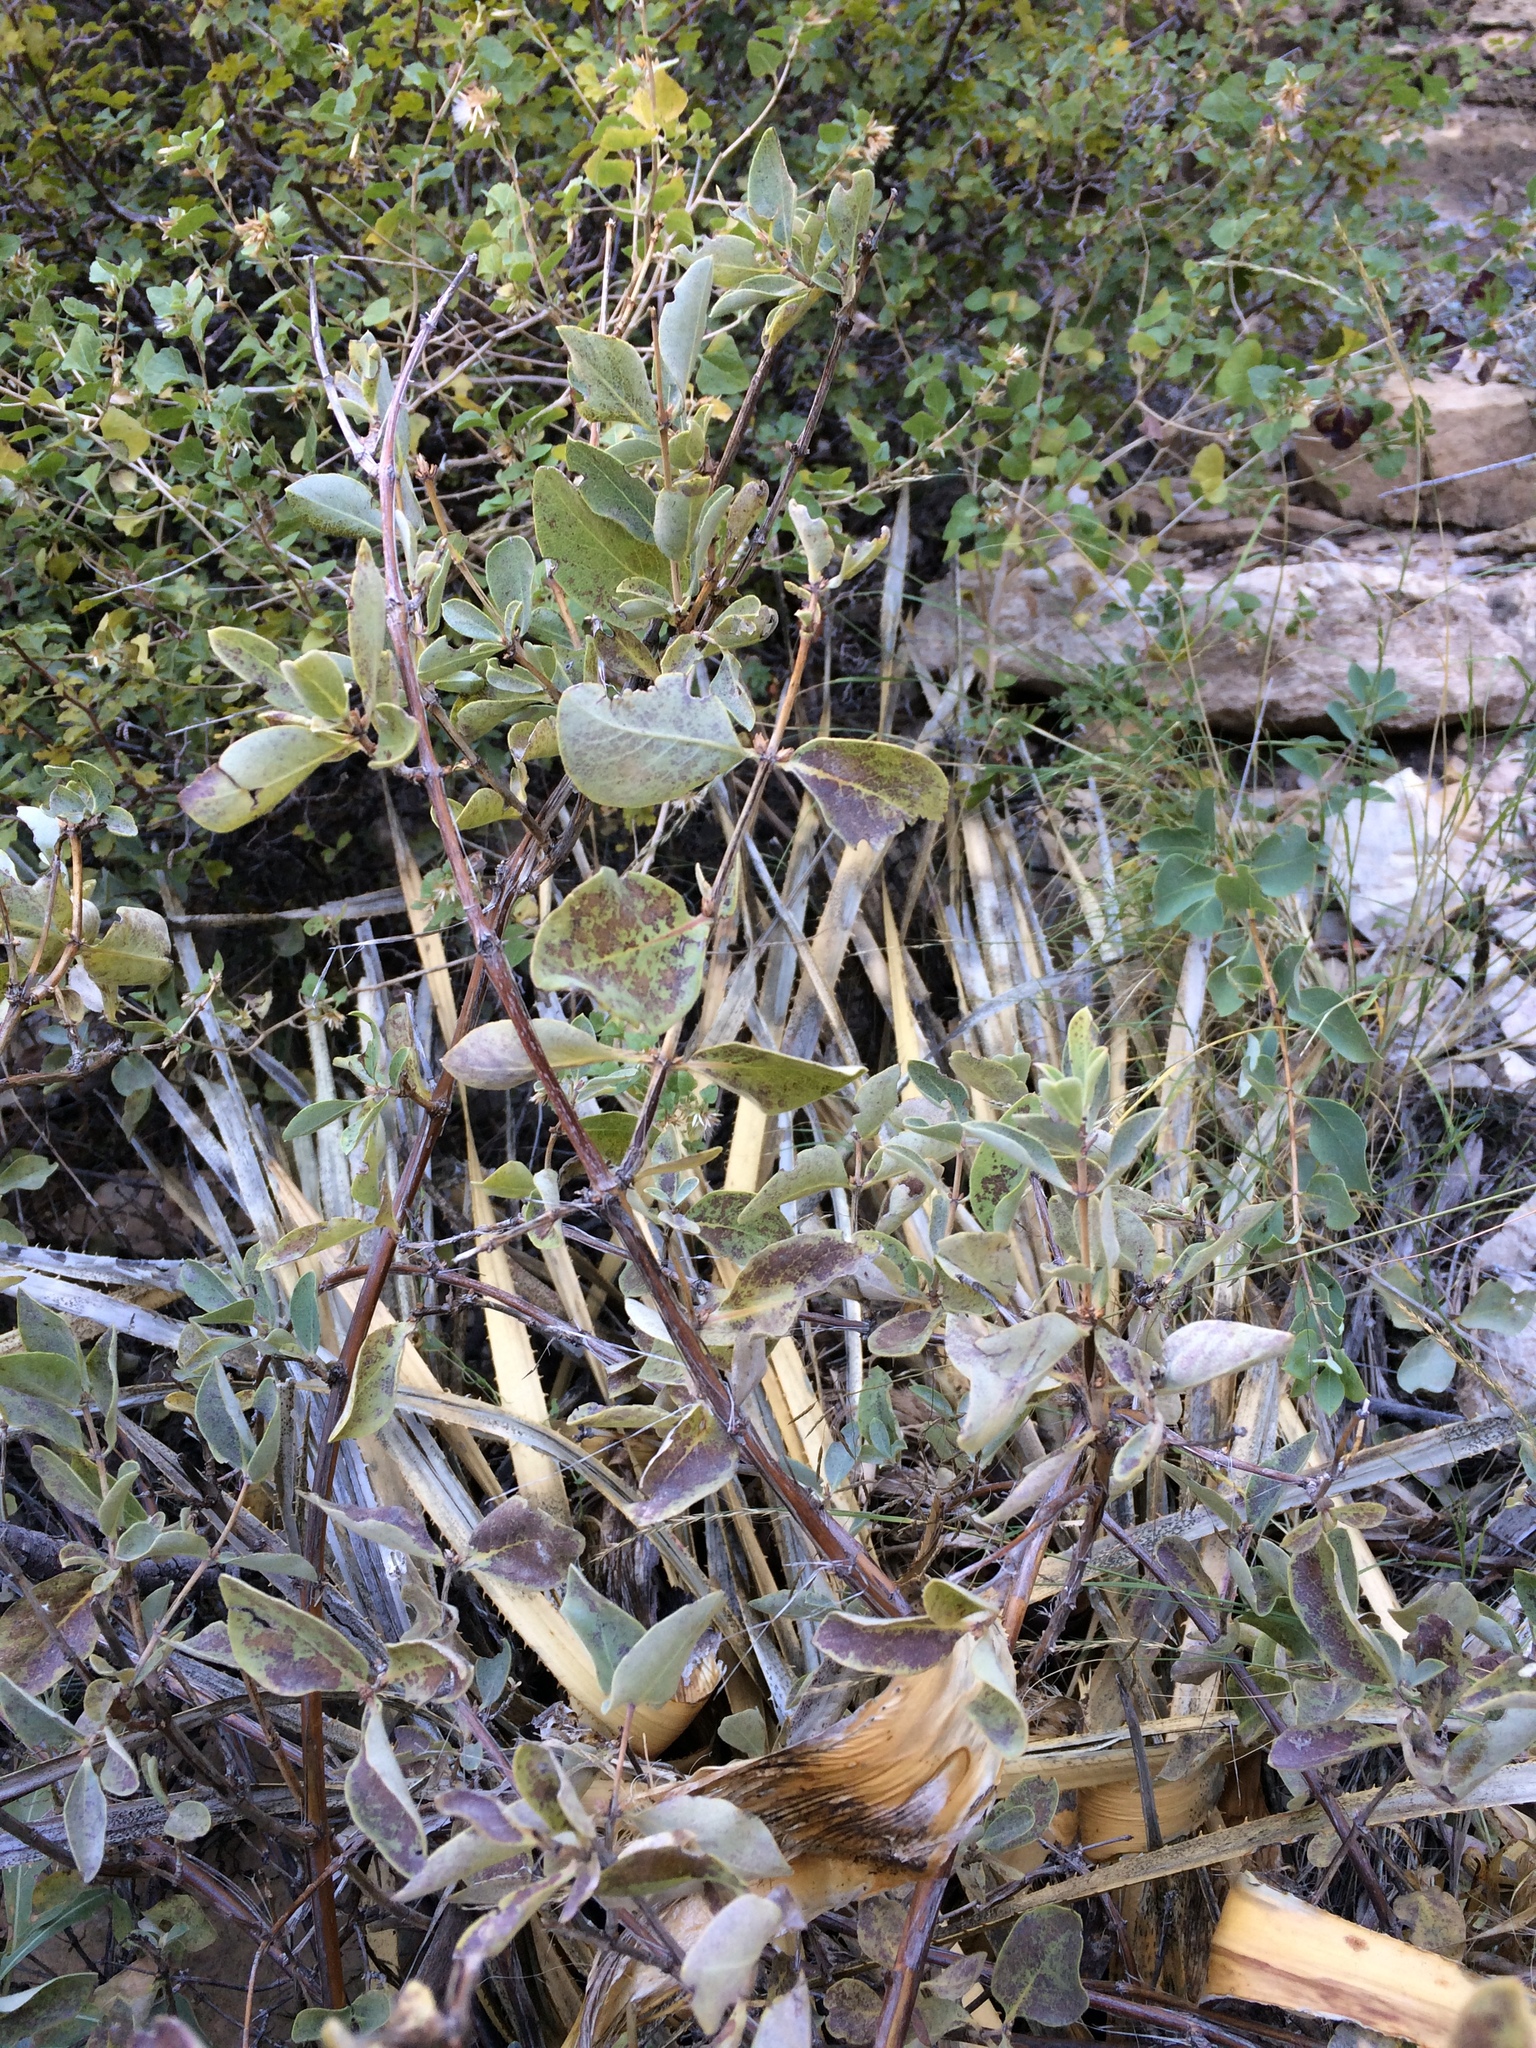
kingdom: Plantae
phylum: Tracheophyta
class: Magnoliopsida
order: Dipsacales
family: Caprifoliaceae
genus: Lonicera
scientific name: Lonicera albiflora
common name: White honeysuckle
